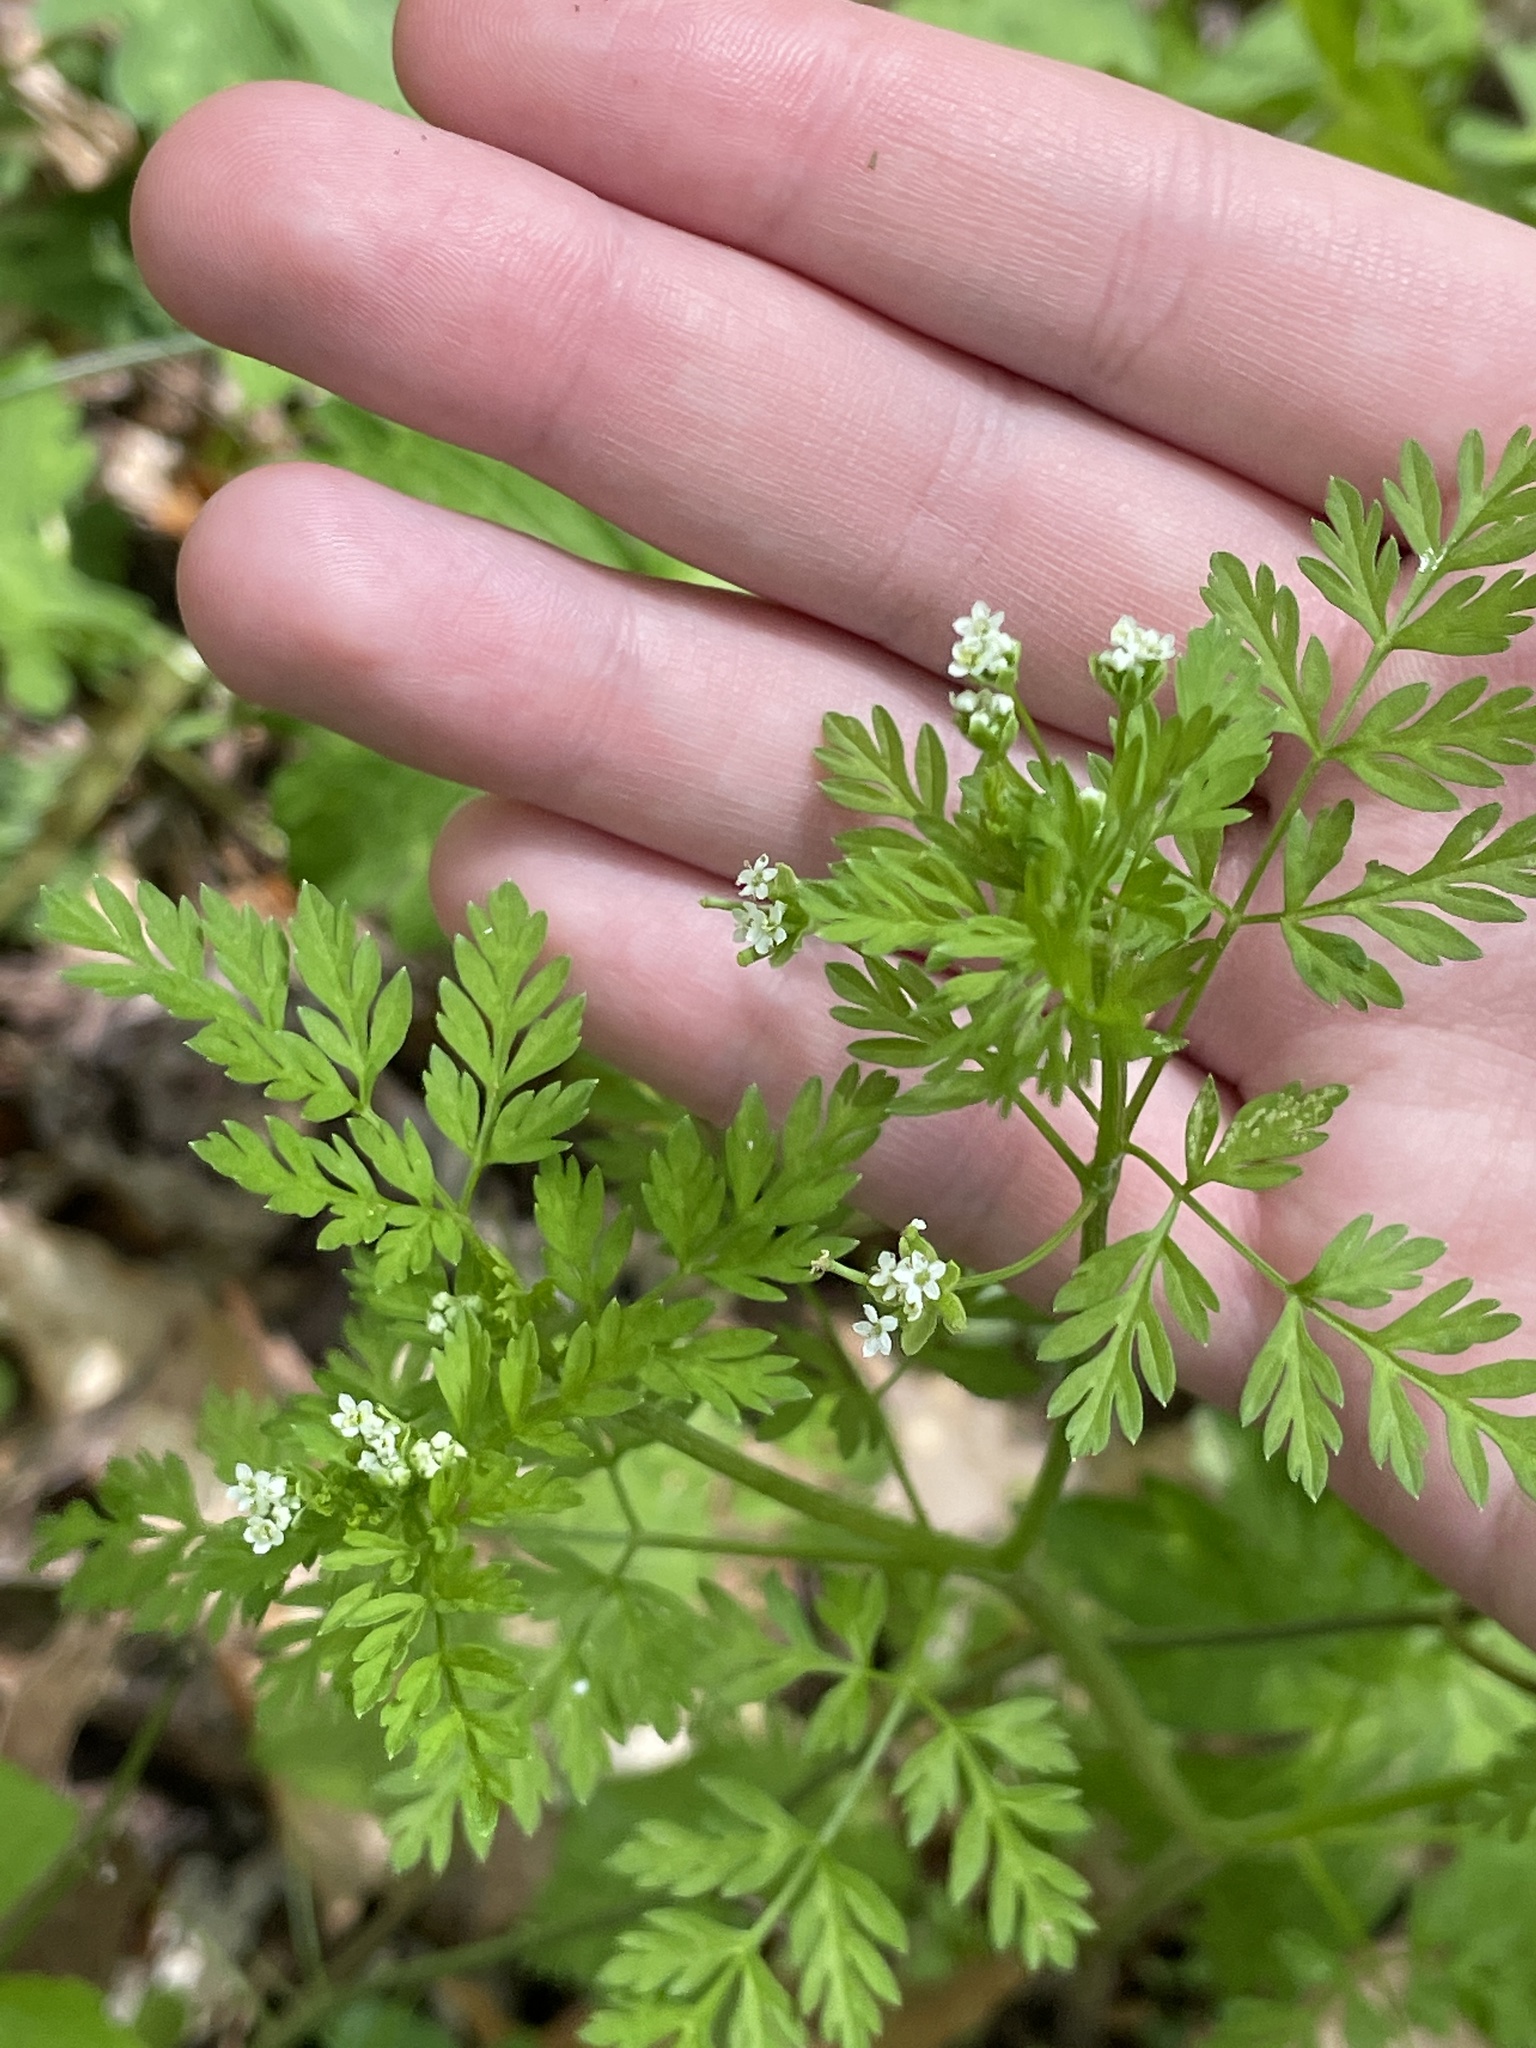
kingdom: Plantae
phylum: Tracheophyta
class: Magnoliopsida
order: Apiales
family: Apiaceae
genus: Chaerophyllum
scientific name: Chaerophyllum tainturieri
